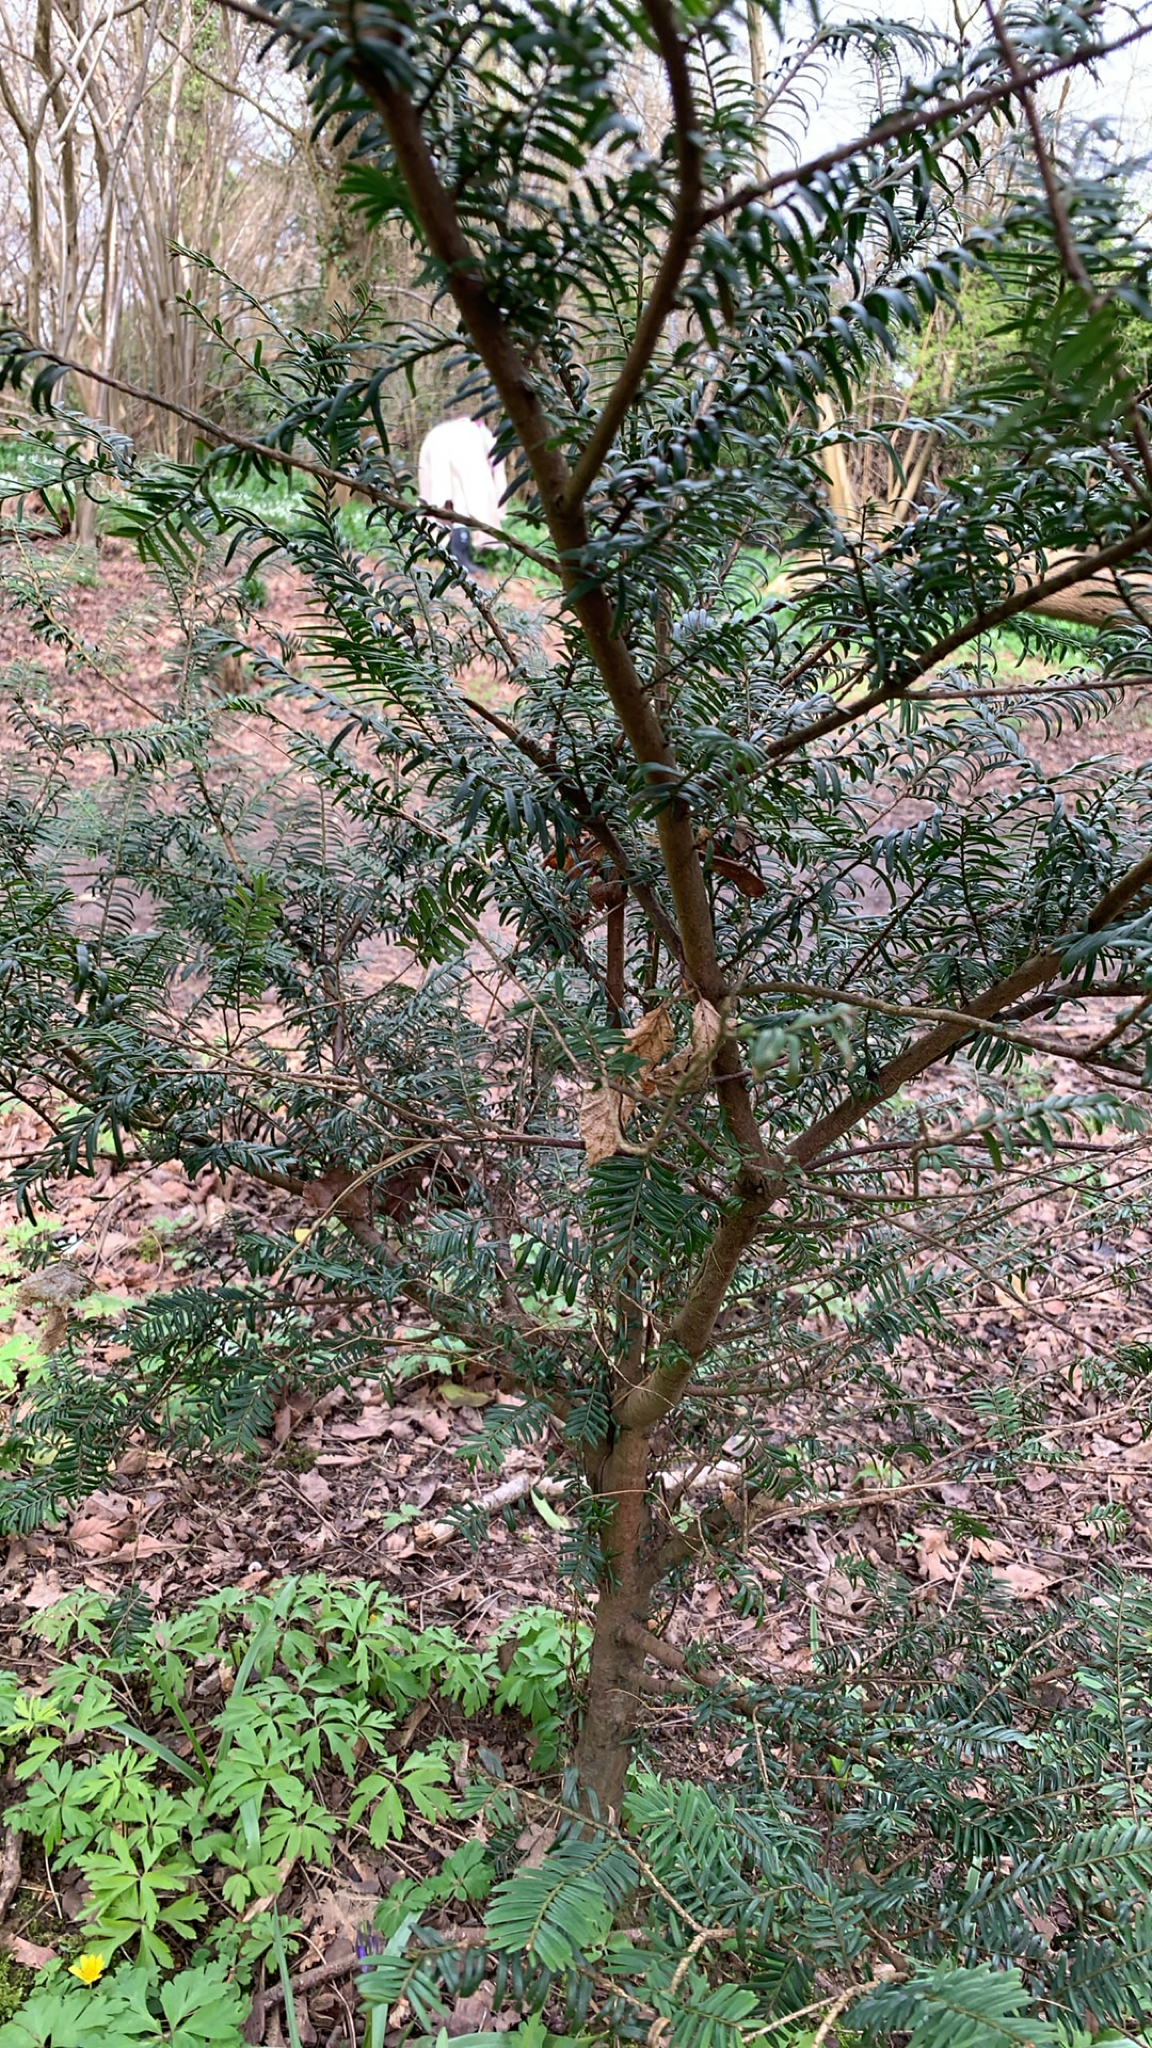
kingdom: Plantae
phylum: Tracheophyta
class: Pinopsida
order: Pinales
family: Taxaceae
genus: Taxus
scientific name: Taxus baccata
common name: Yew
